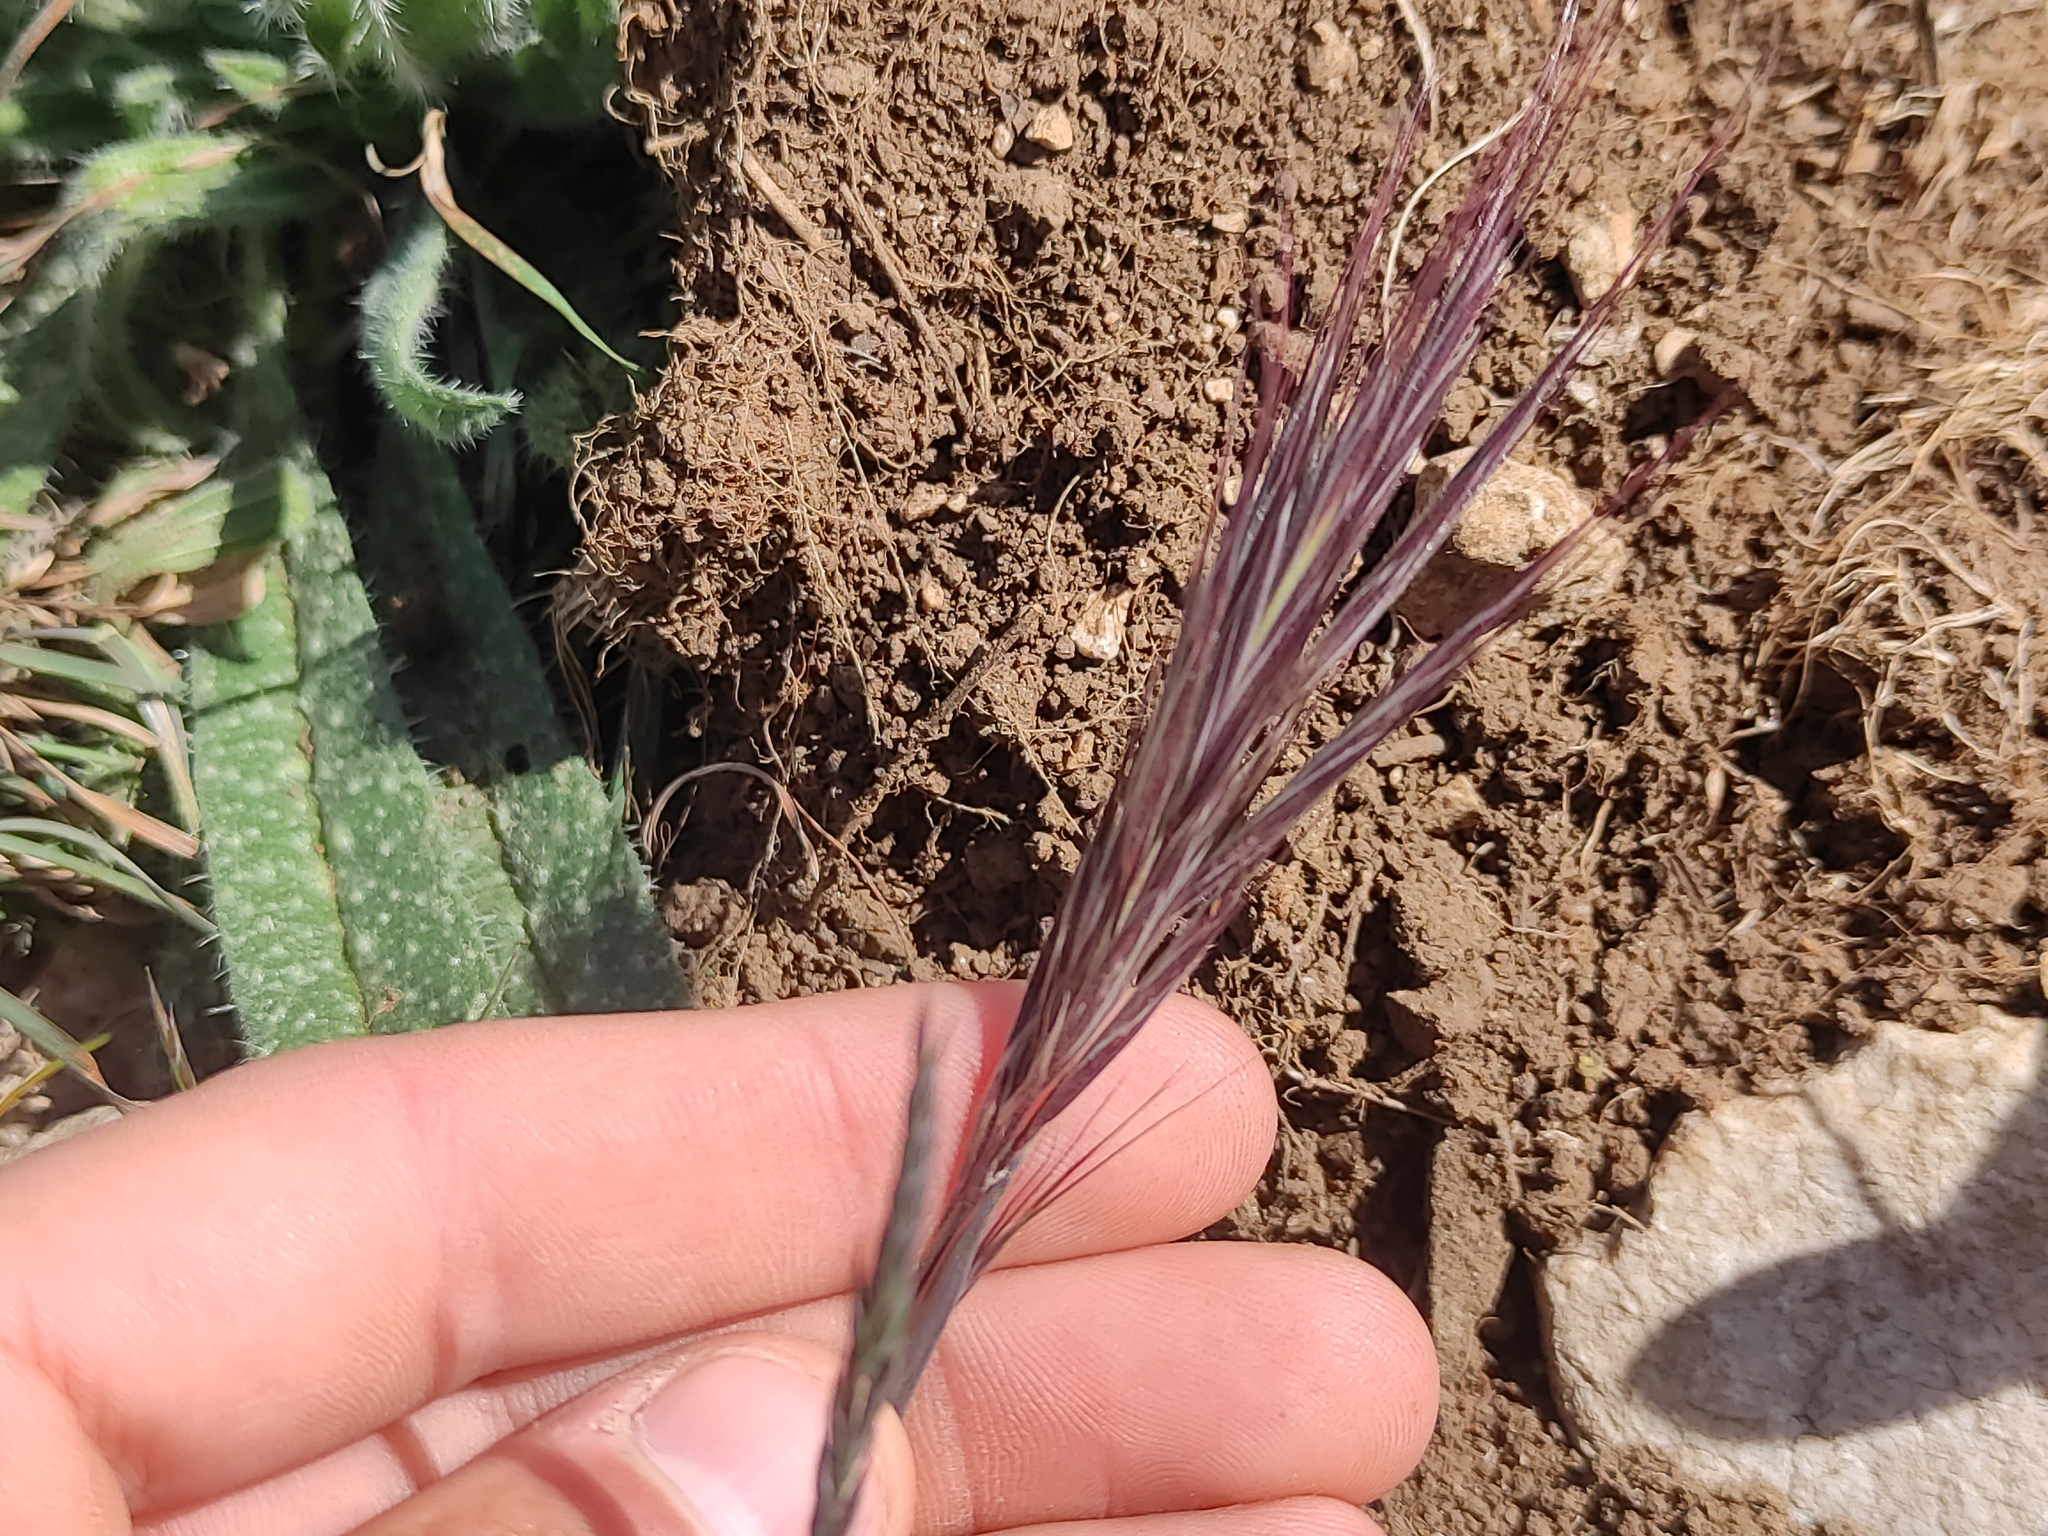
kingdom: Plantae
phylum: Tracheophyta
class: Liliopsida
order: Poales
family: Poaceae
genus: Bromus
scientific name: Bromus rubens
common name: Red brome
